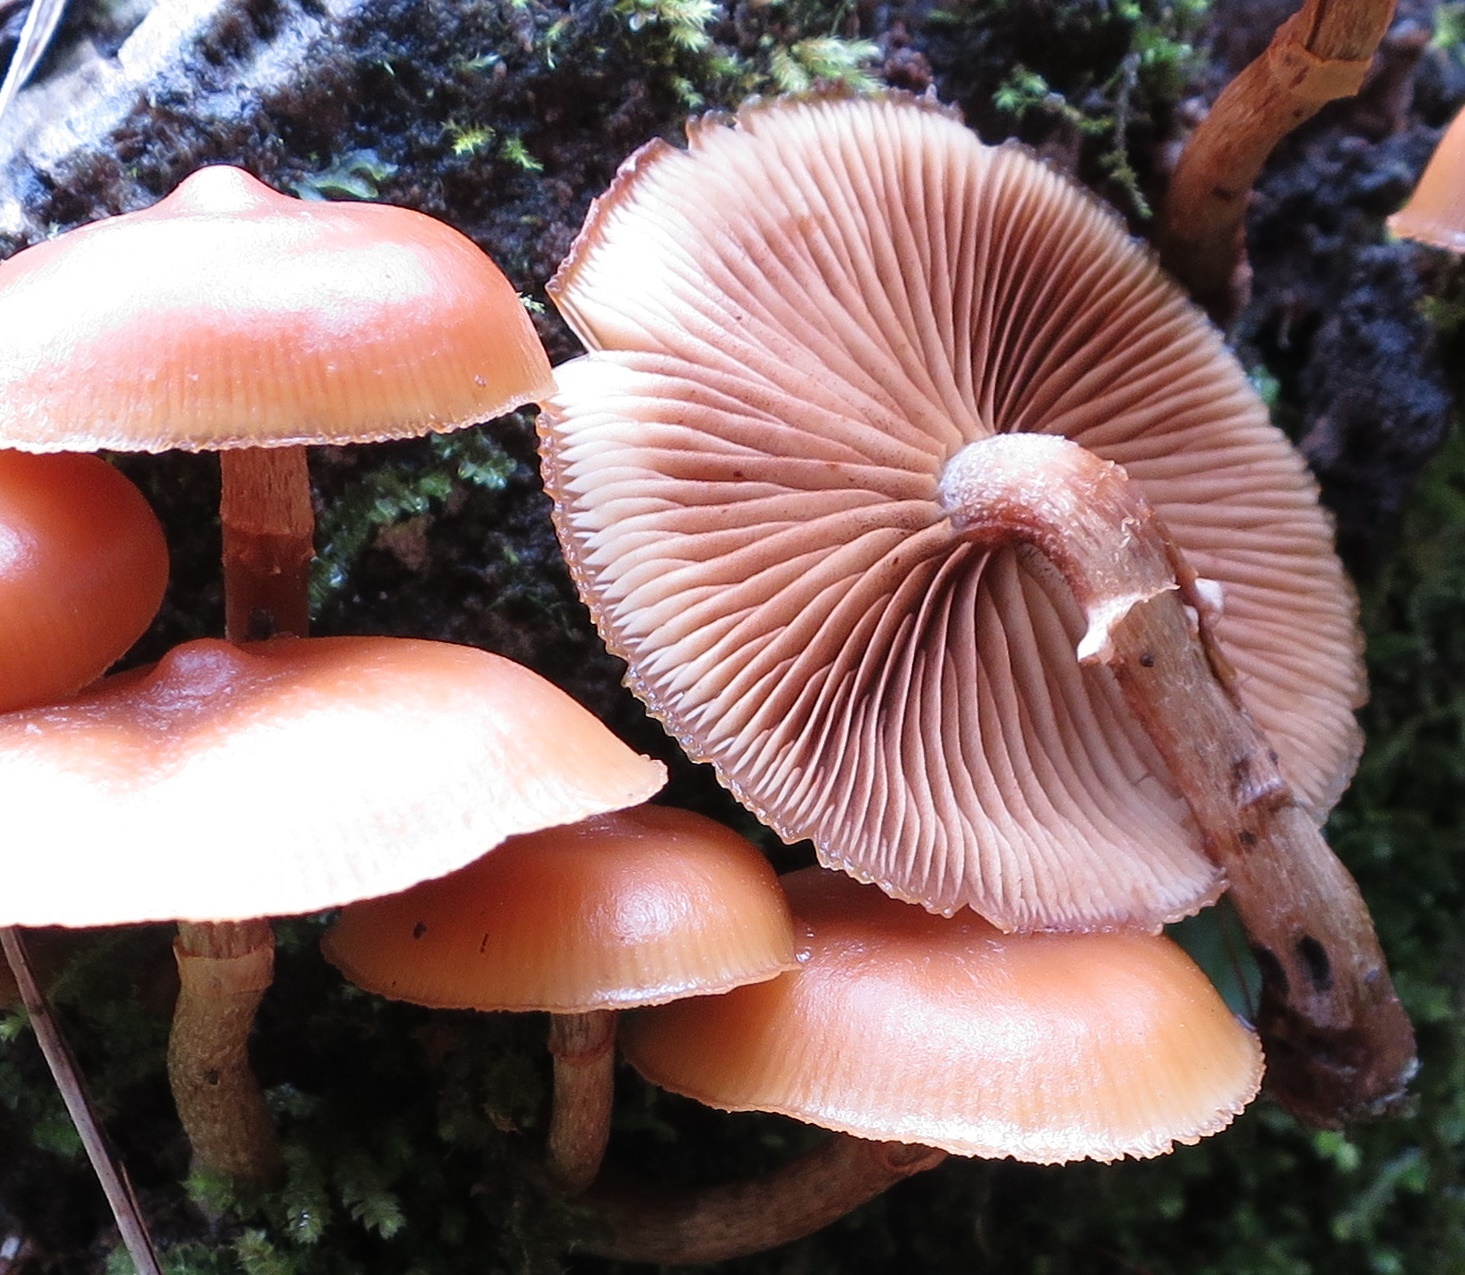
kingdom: Fungi
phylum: Basidiomycota
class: Agaricomycetes
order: Agaricales
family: Hymenogastraceae
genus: Galerina
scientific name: Galerina patagonica
